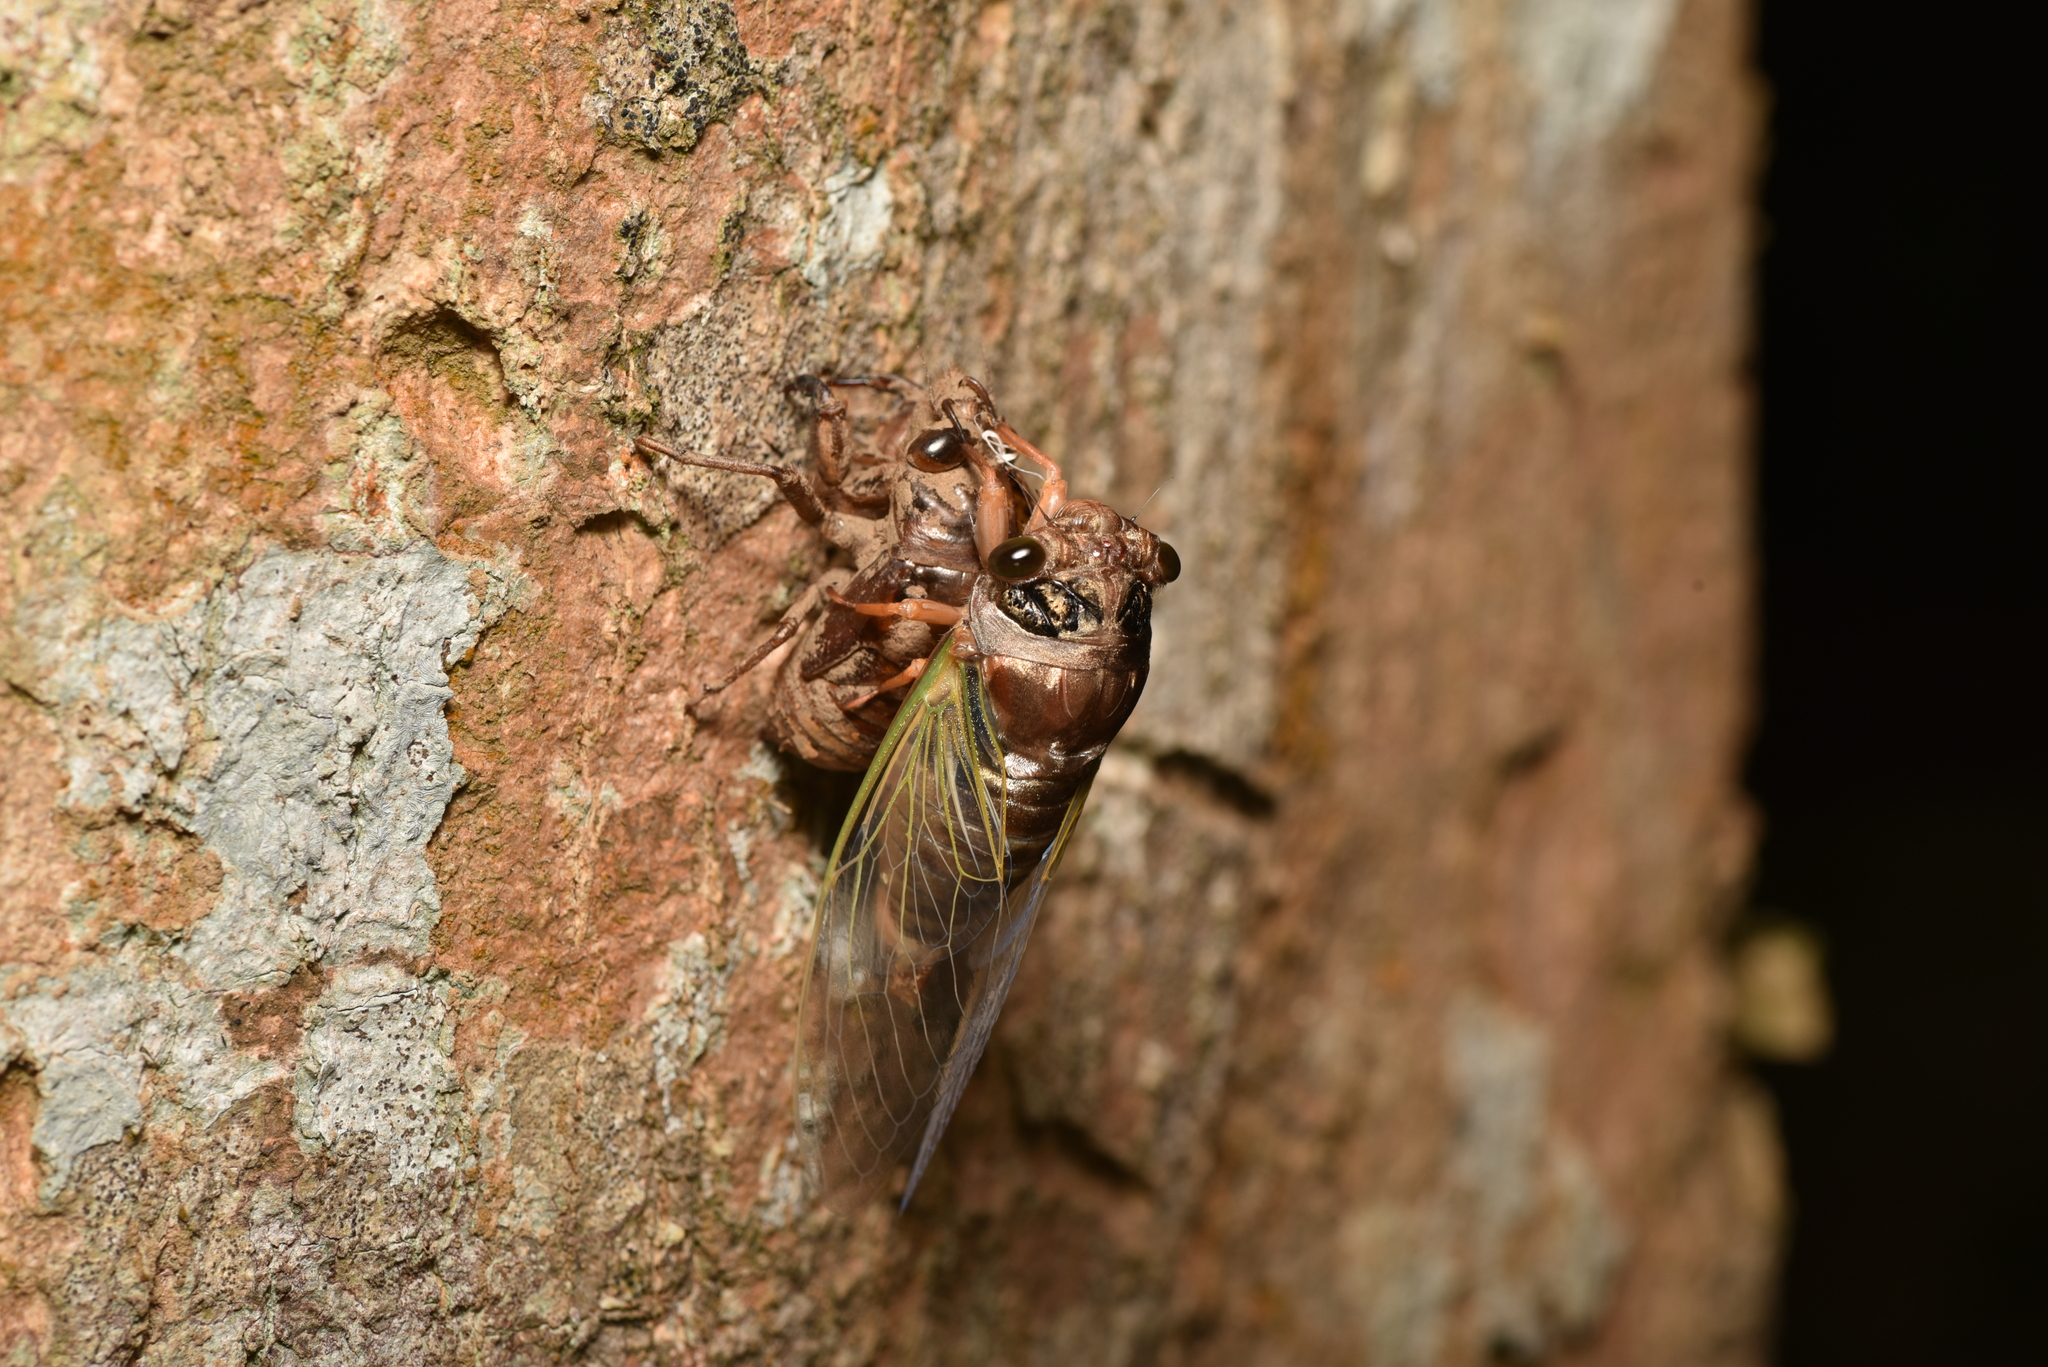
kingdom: Animalia
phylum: Arthropoda
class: Insecta
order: Hemiptera
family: Cicadidae
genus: Cryptotympana
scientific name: Cryptotympana takasagona
